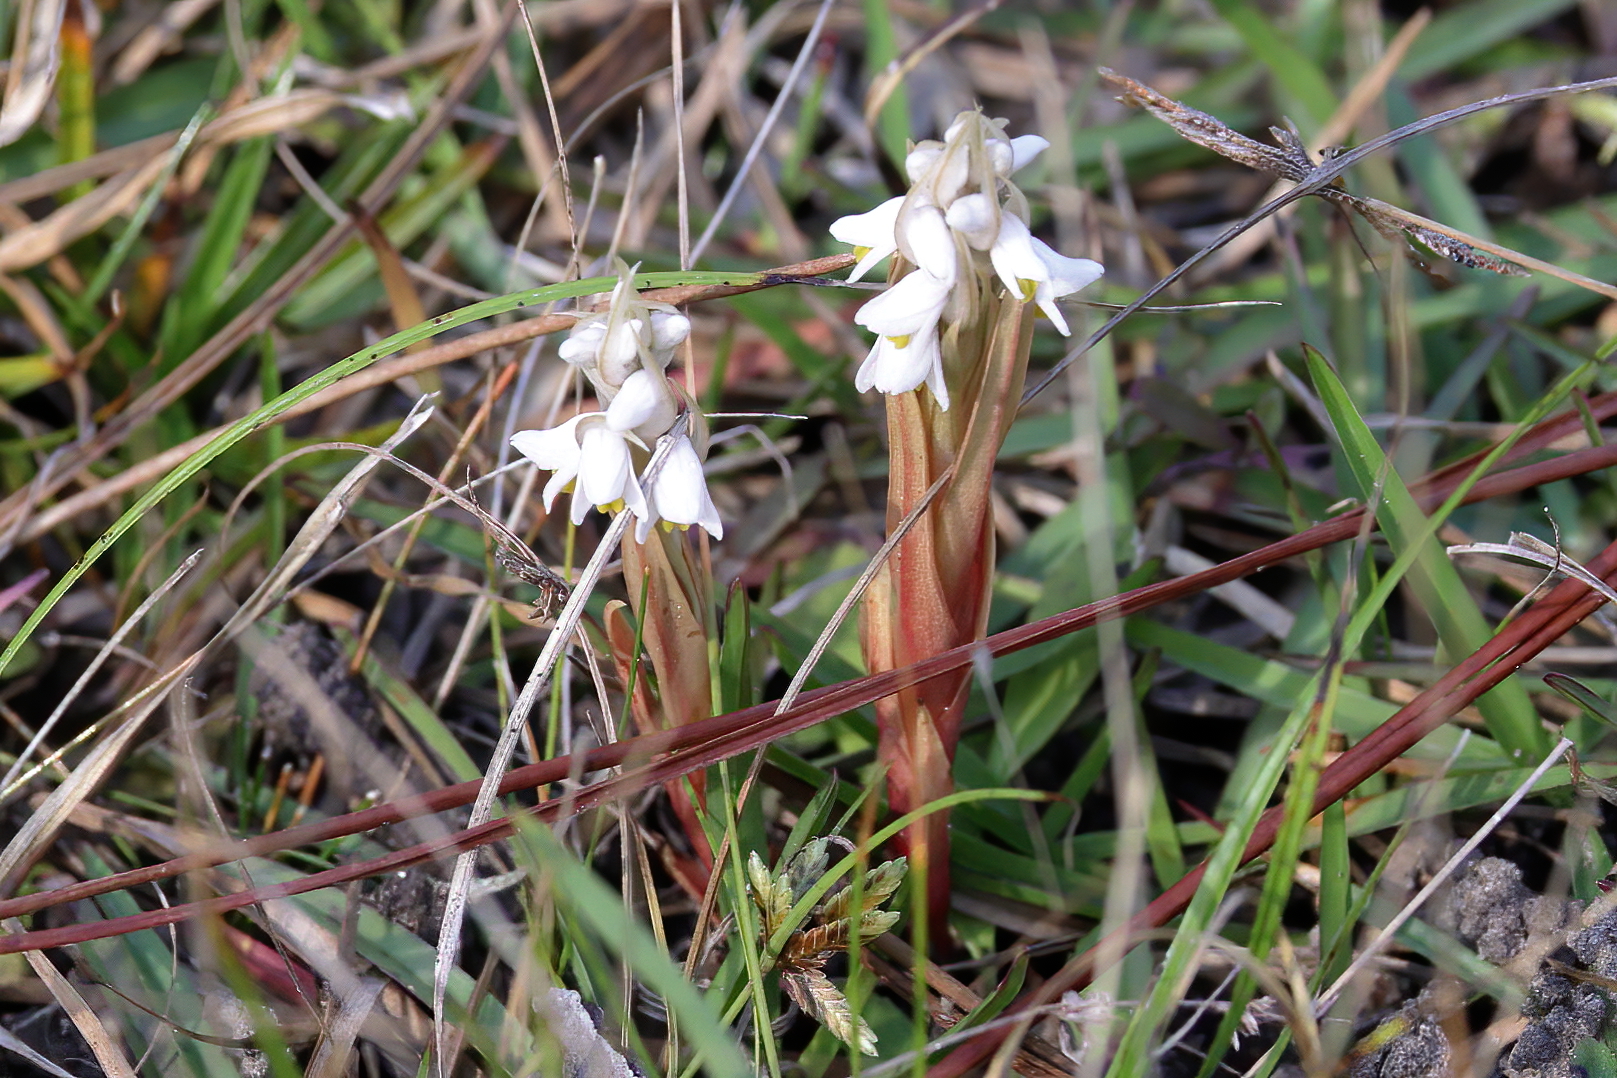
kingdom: Plantae
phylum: Tracheophyta
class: Liliopsida
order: Asparagales
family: Orchidaceae
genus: Zeuxine
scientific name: Zeuxine strateumatica
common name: Soldier's orchid
